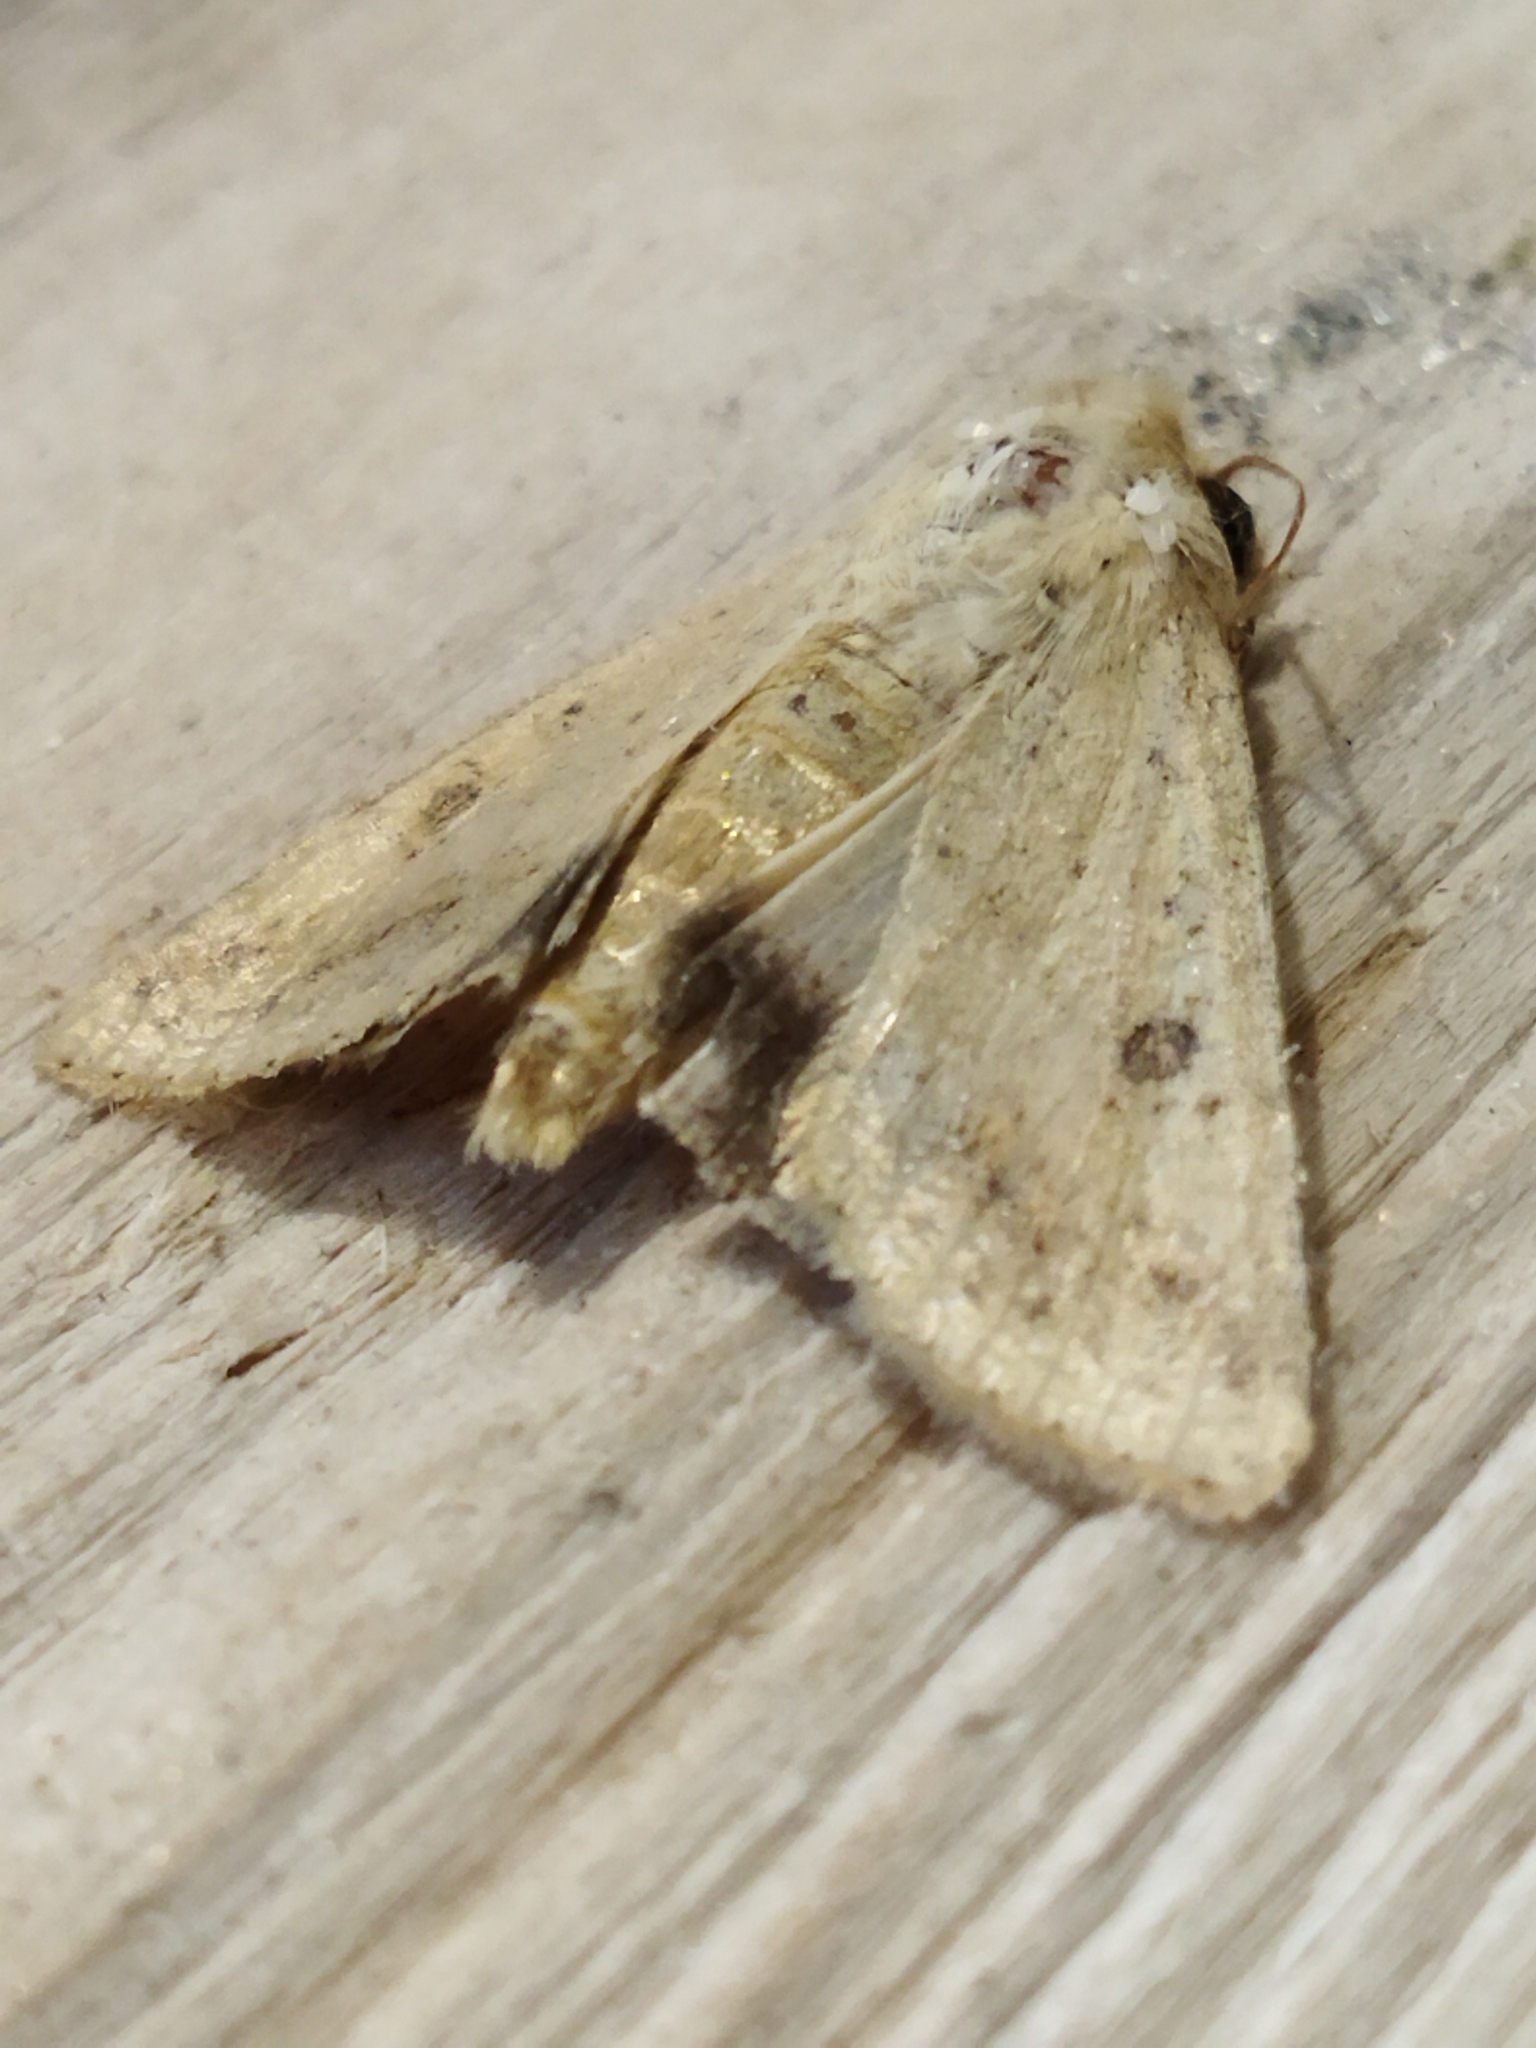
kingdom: Animalia
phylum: Arthropoda
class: Insecta
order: Lepidoptera
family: Noctuidae
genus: Helicoverpa
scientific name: Helicoverpa armigera
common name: Cotton bollworm
